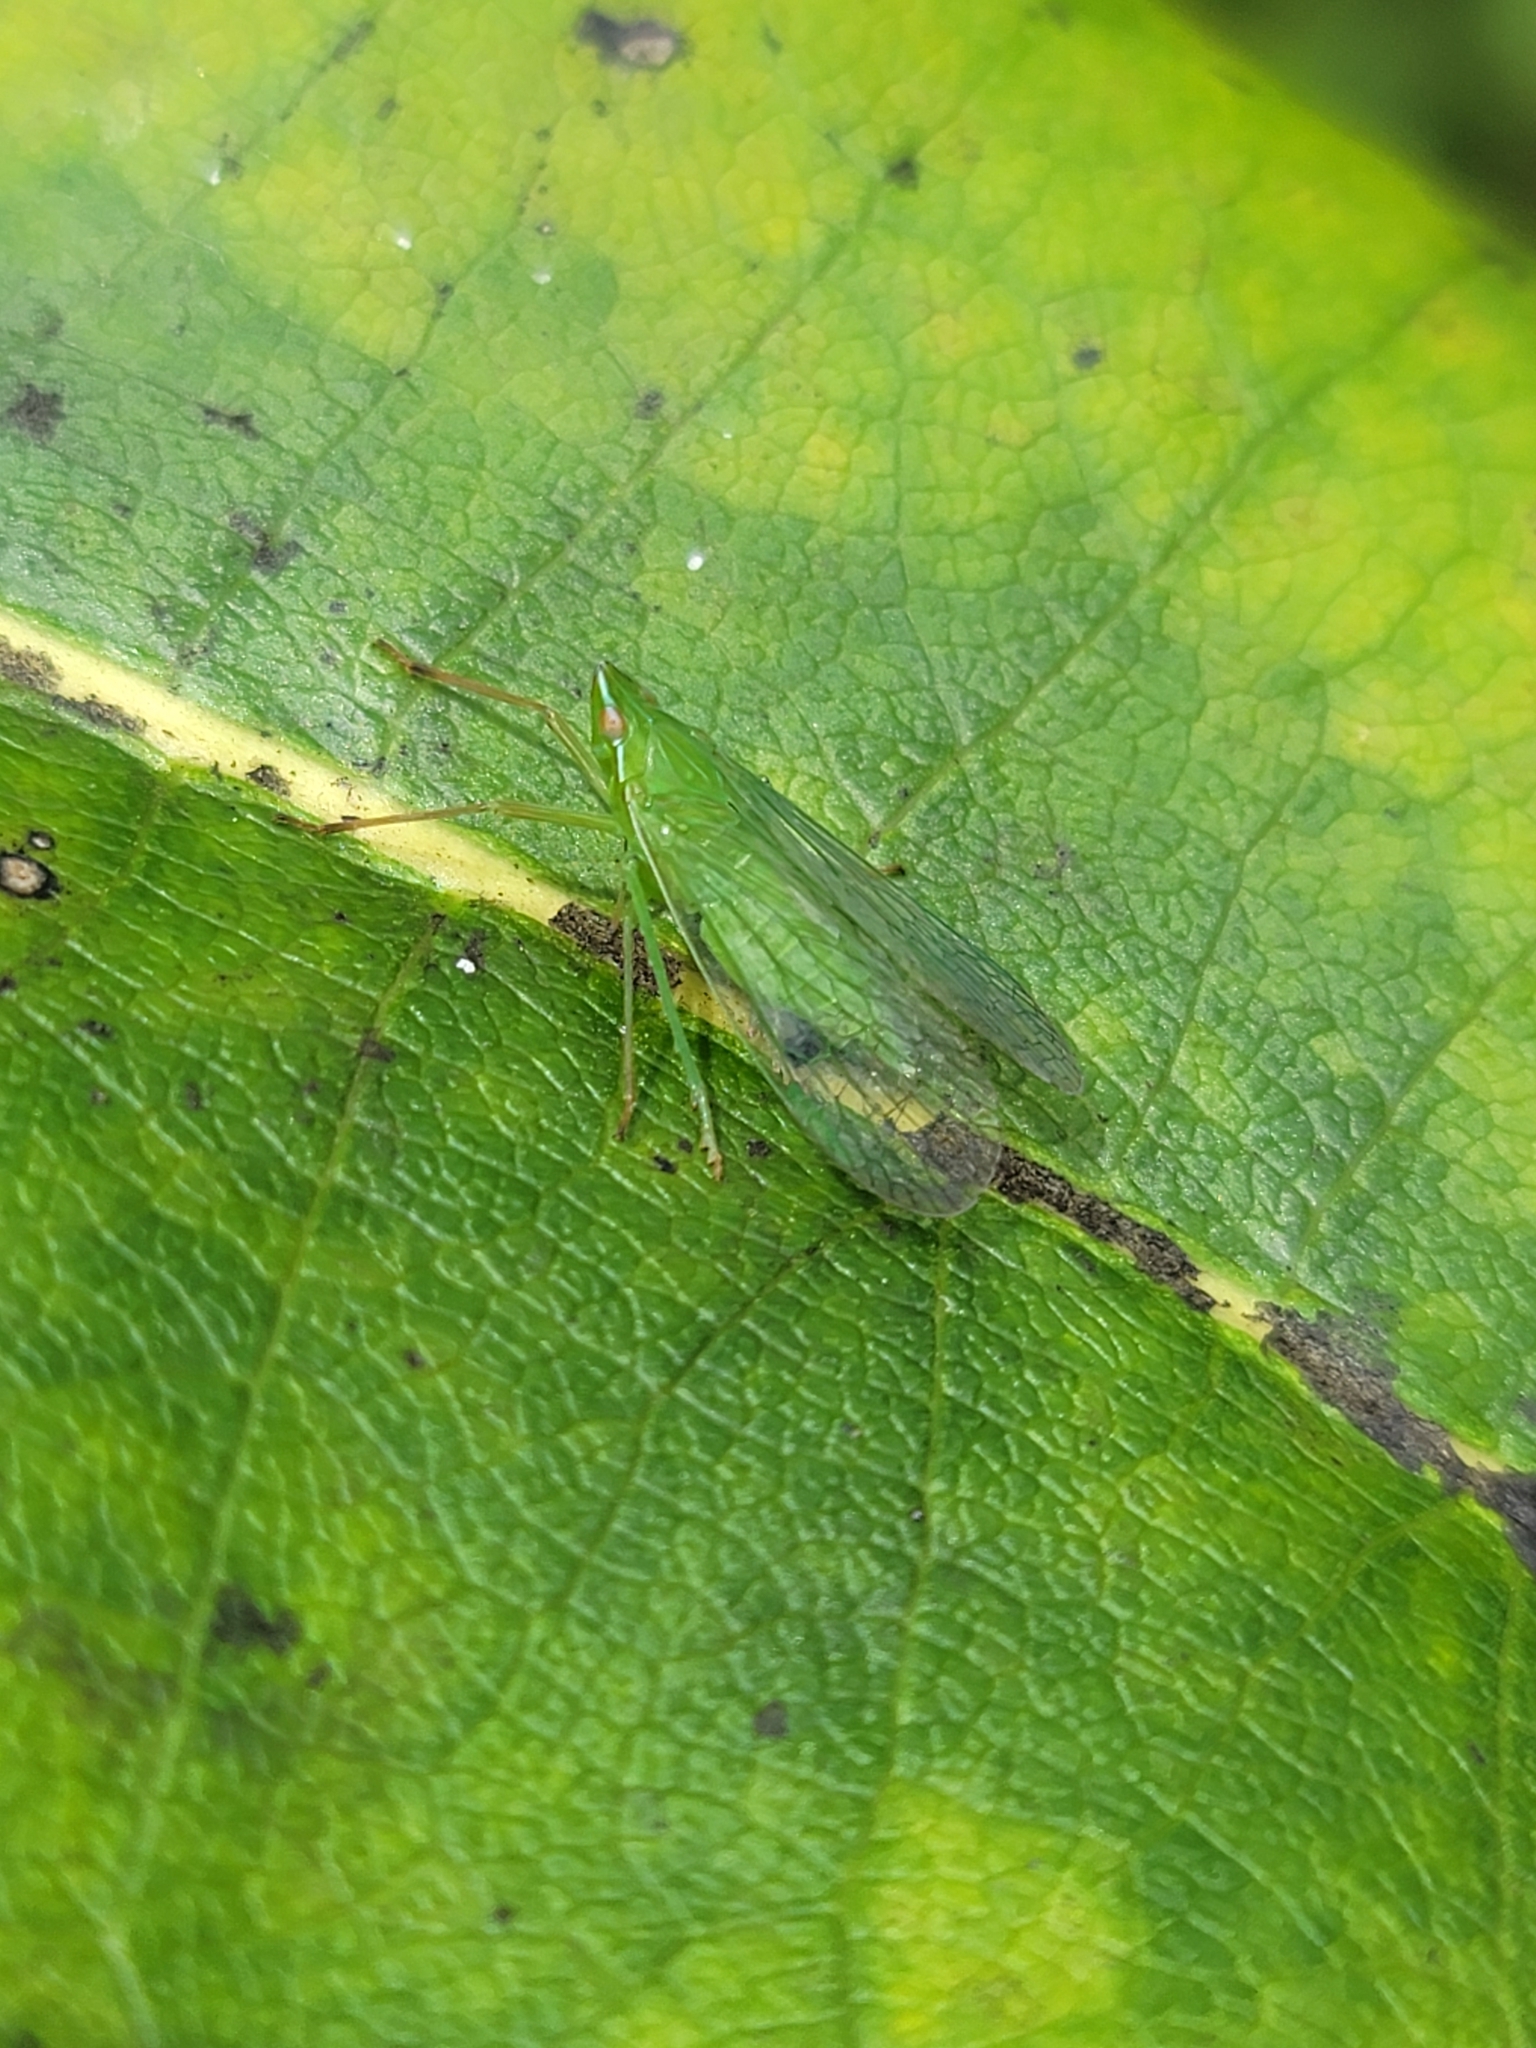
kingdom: Animalia
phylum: Arthropoda
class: Insecta
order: Hemiptera
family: Dictyopharidae
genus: Nersia
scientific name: Nersia florida
